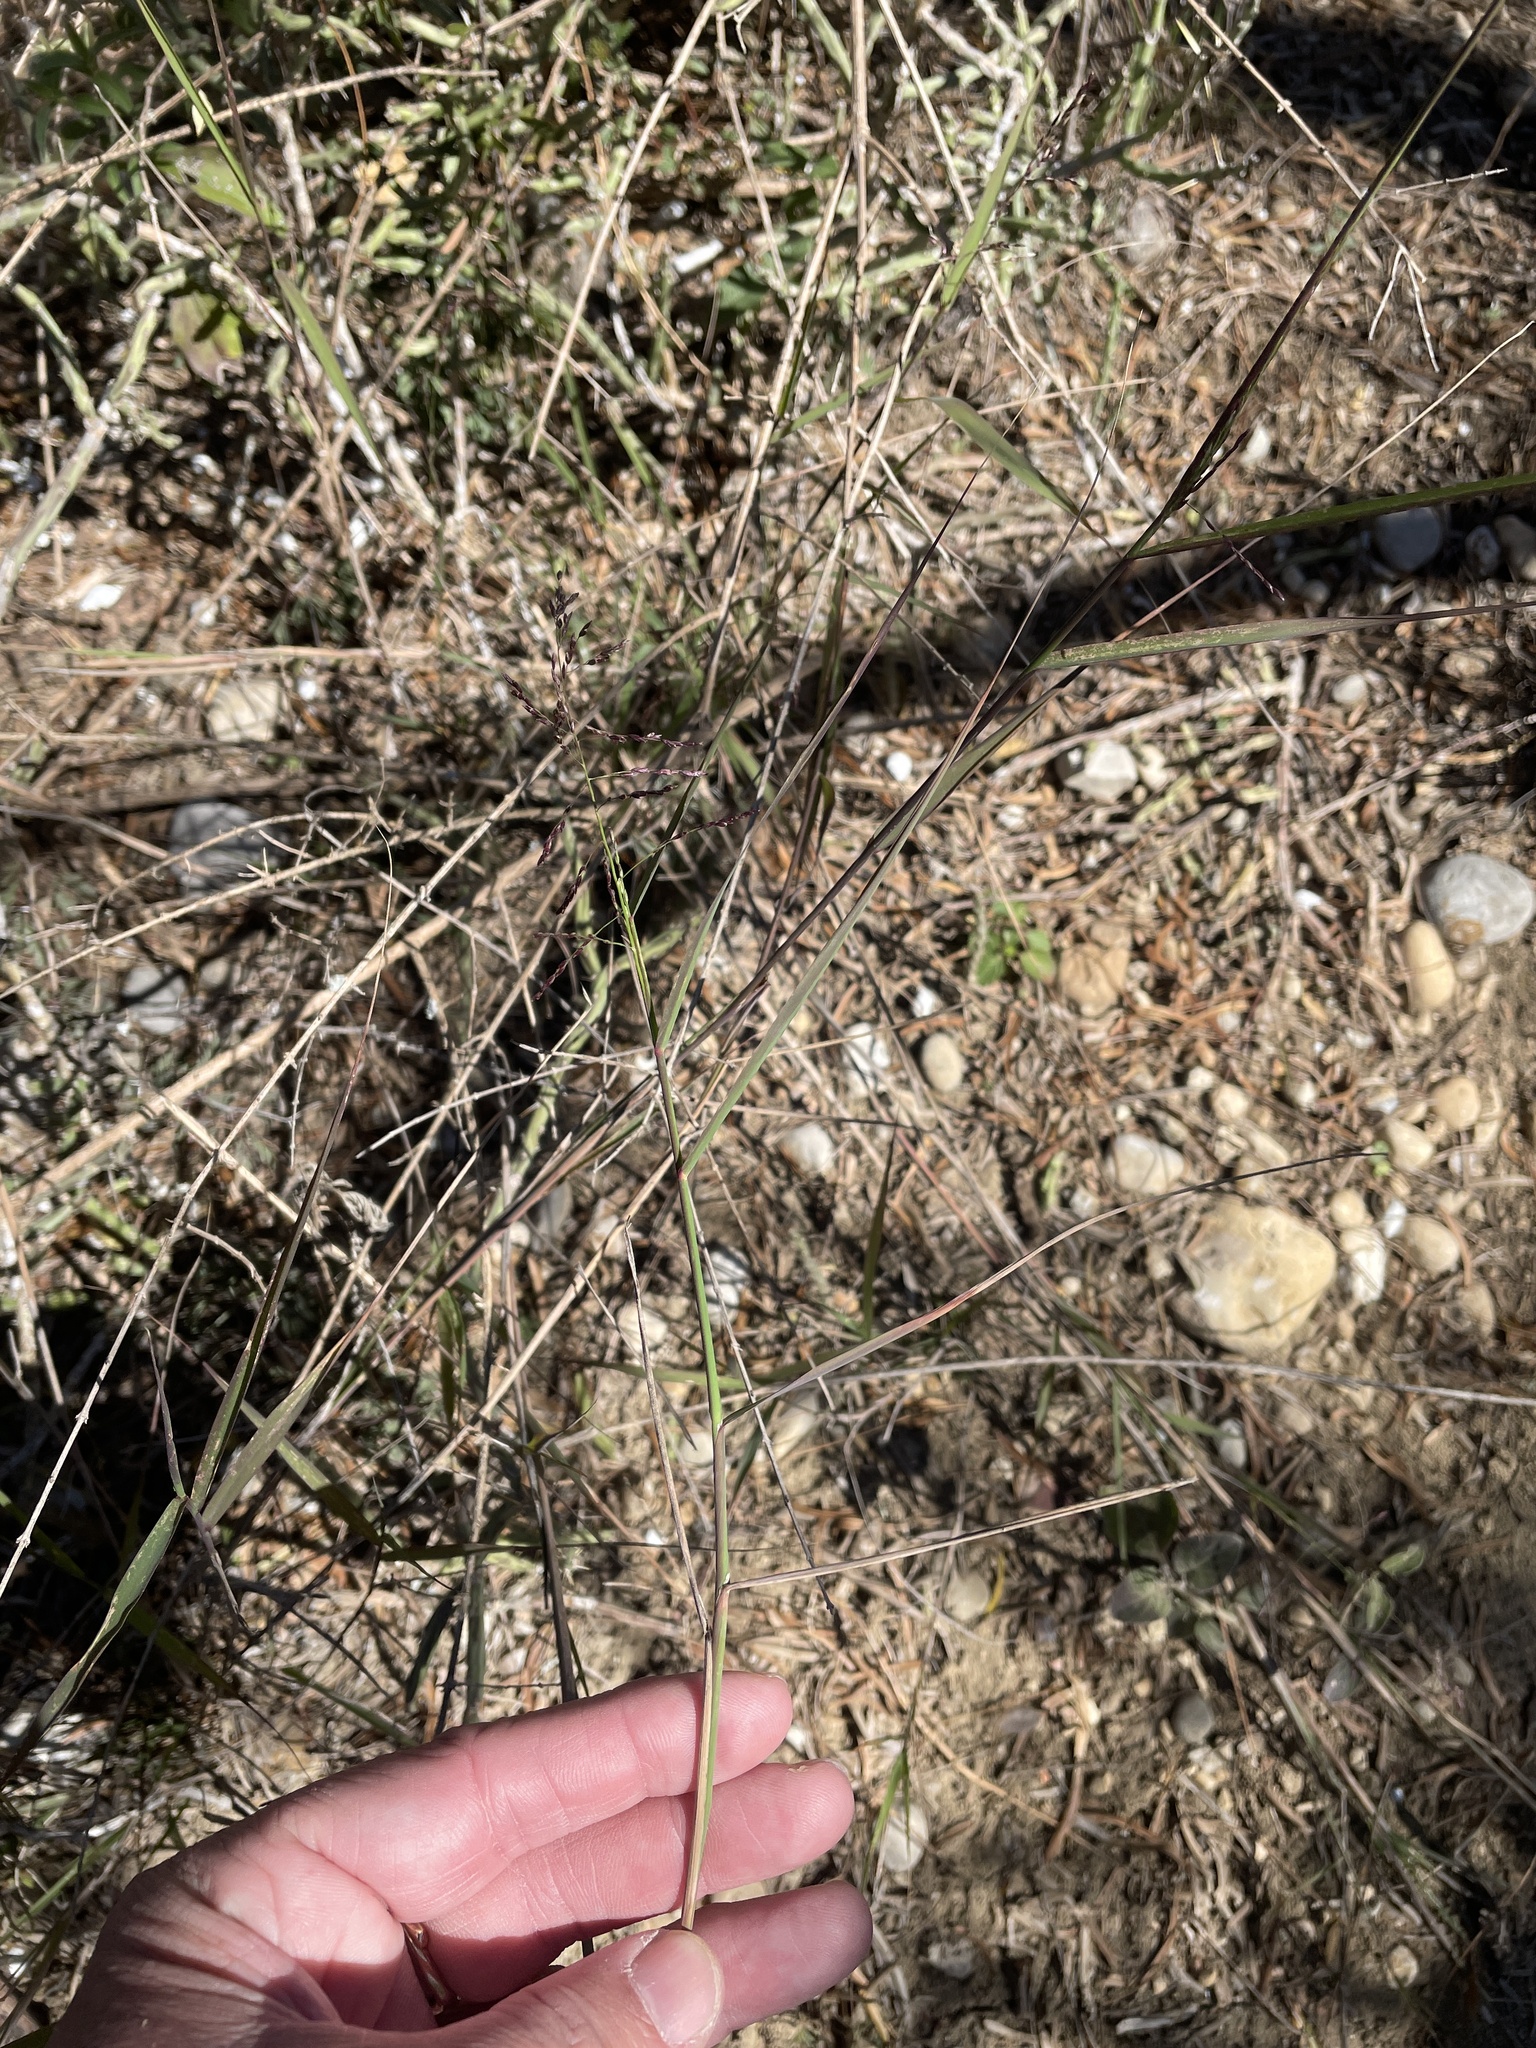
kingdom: Plantae
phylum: Tracheophyta
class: Liliopsida
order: Poales
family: Poaceae
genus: Sporobolus
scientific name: Sporobolus cryptandrus
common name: Sand dropseed
